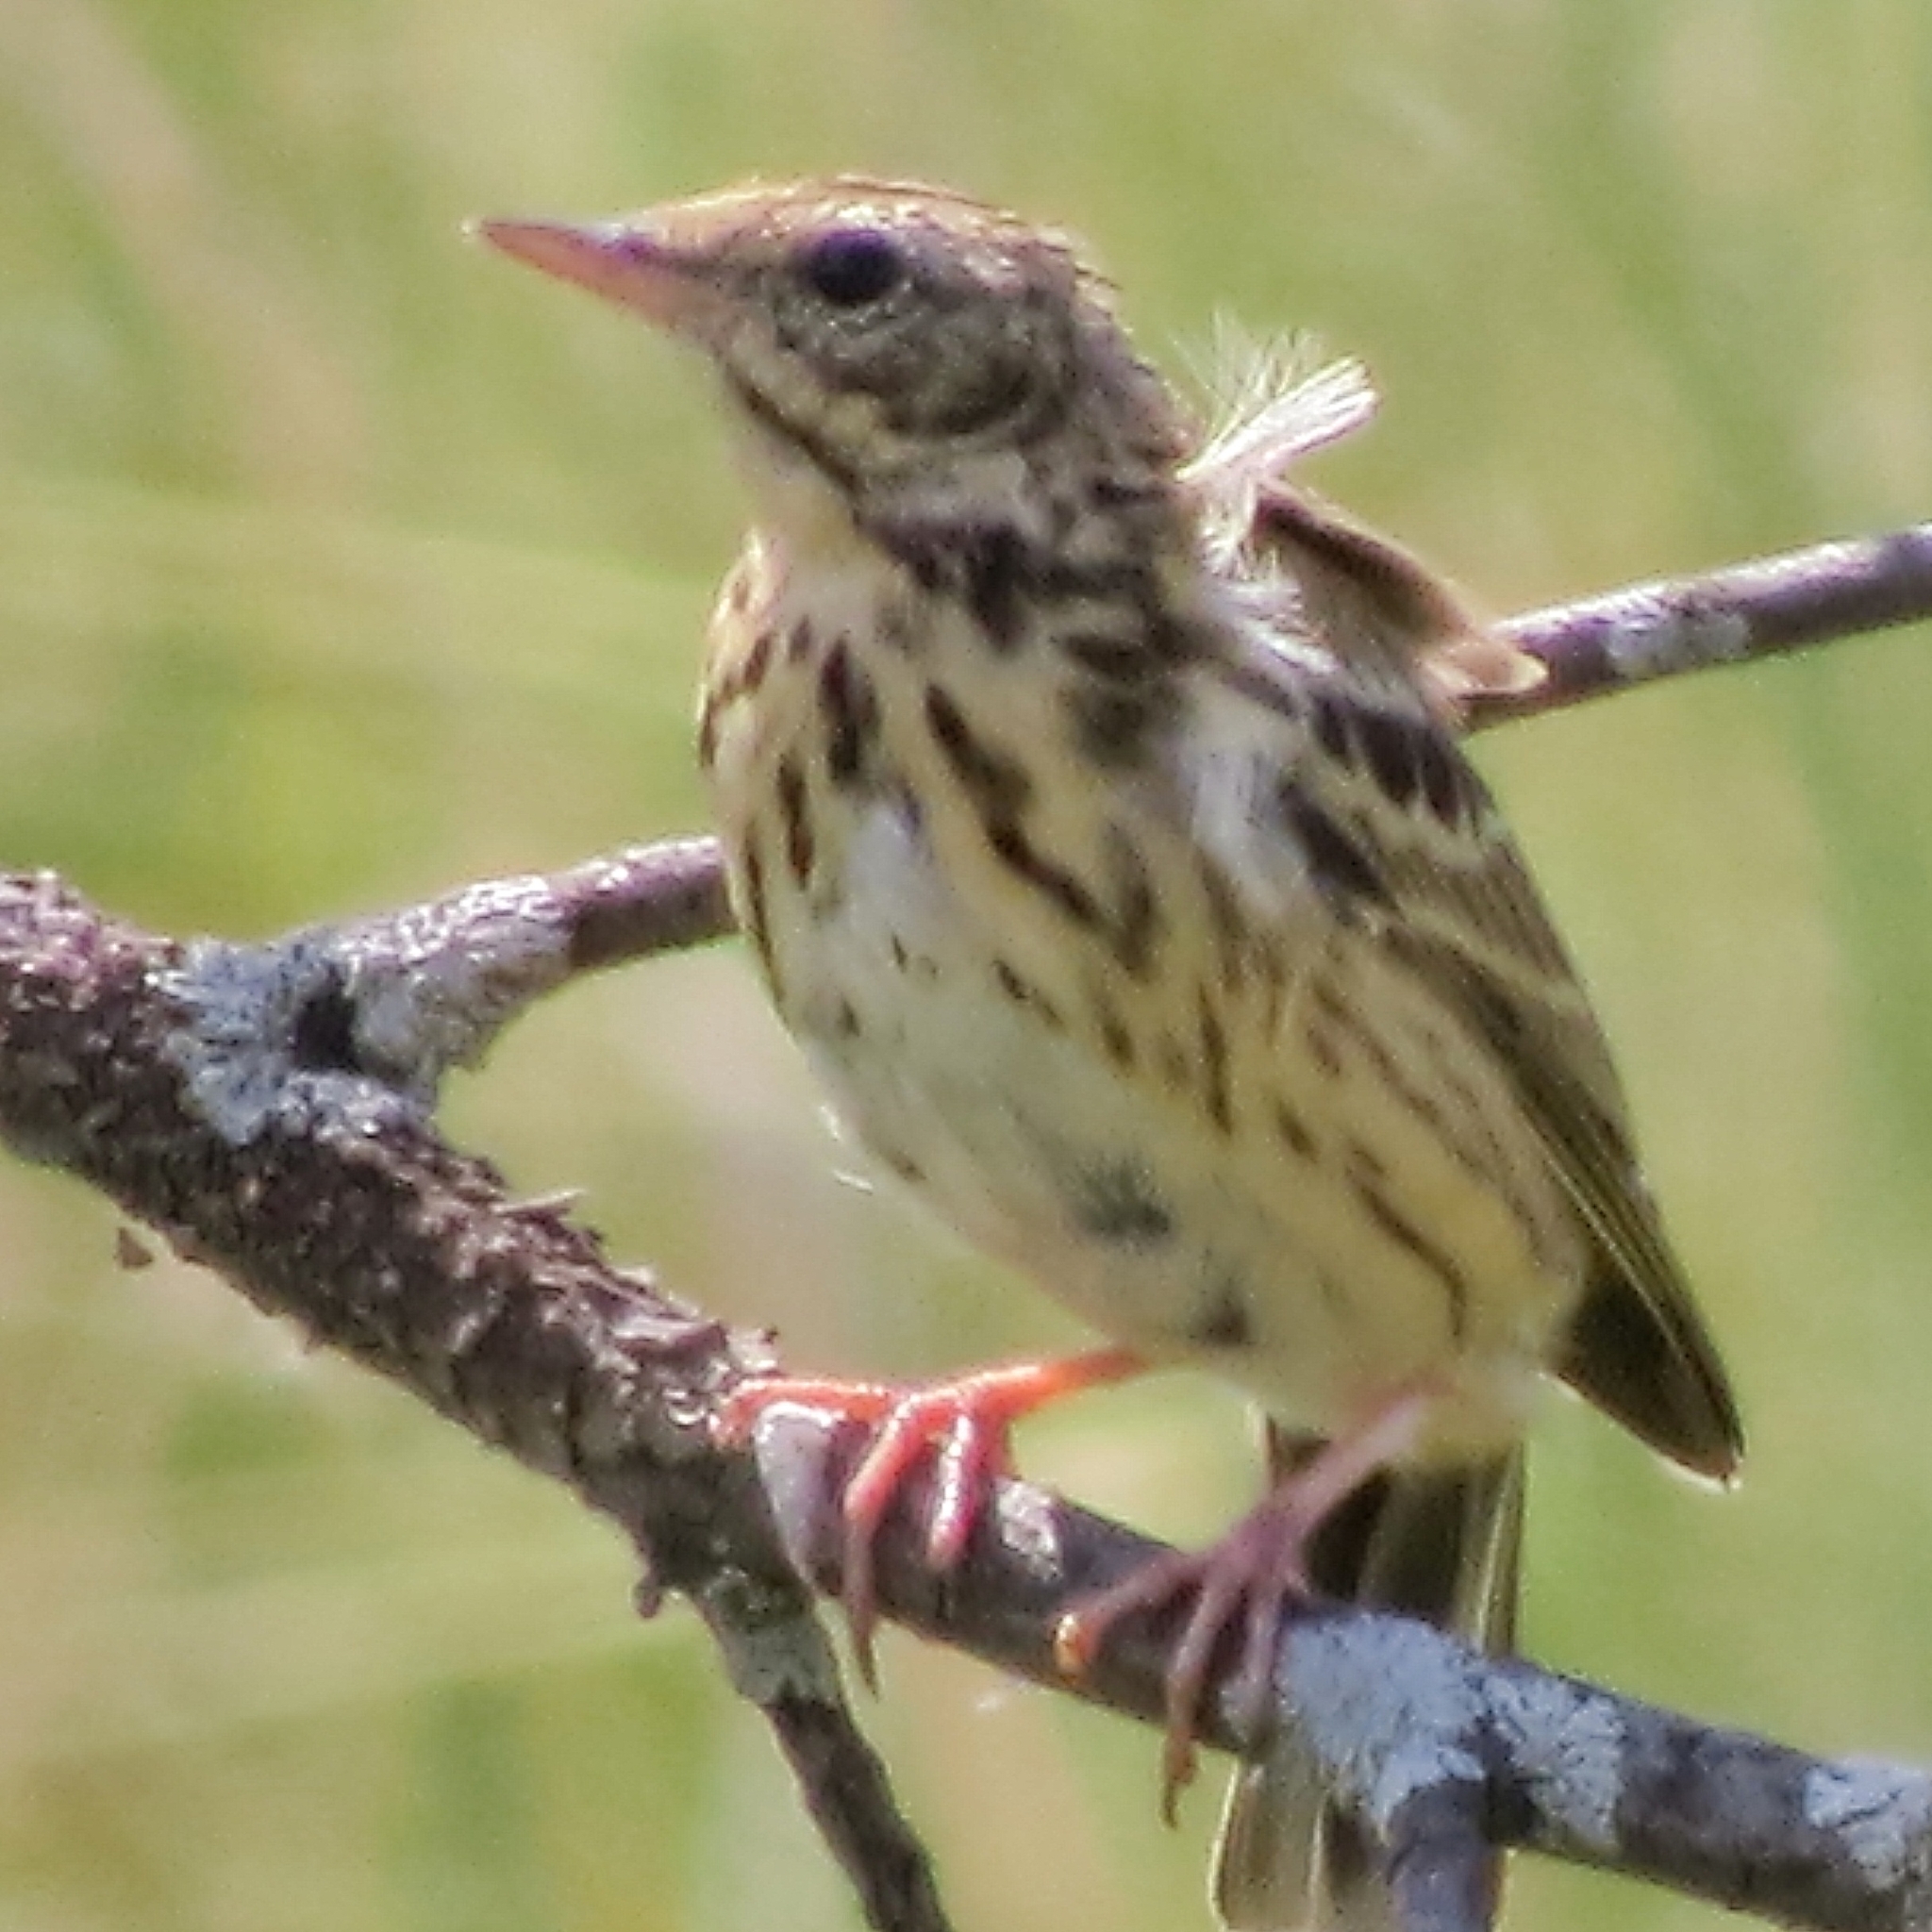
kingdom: Animalia
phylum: Chordata
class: Aves
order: Passeriformes
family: Motacillidae
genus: Anthus
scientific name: Anthus trivialis
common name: Tree pipit
